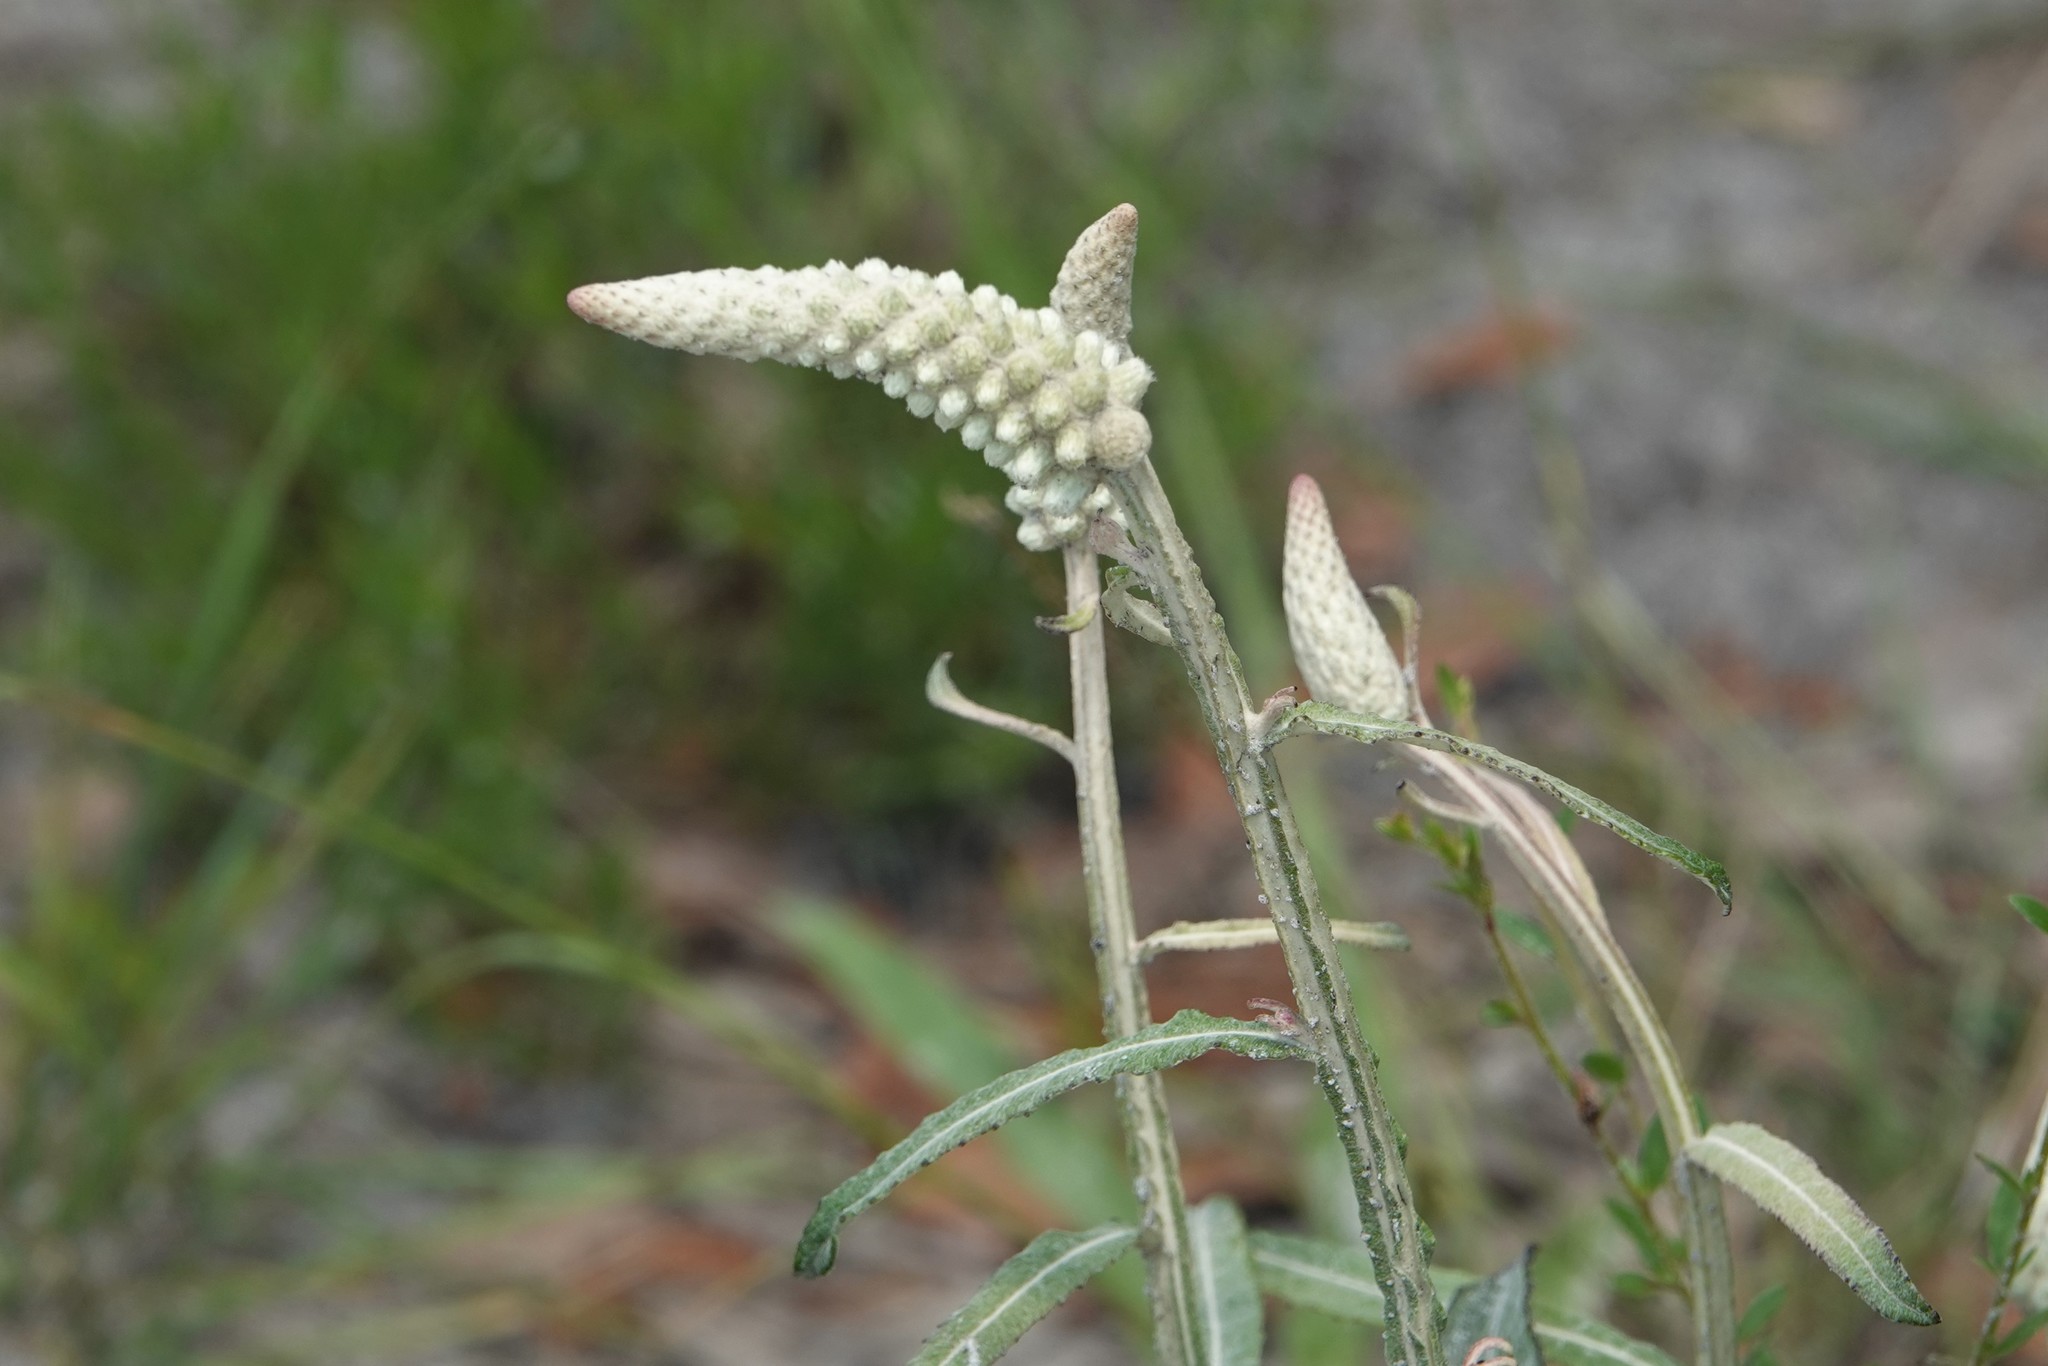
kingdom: Plantae
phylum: Tracheophyta
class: Magnoliopsida
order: Asterales
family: Asteraceae
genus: Pterocaulon
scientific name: Pterocaulon pycnostachyum
